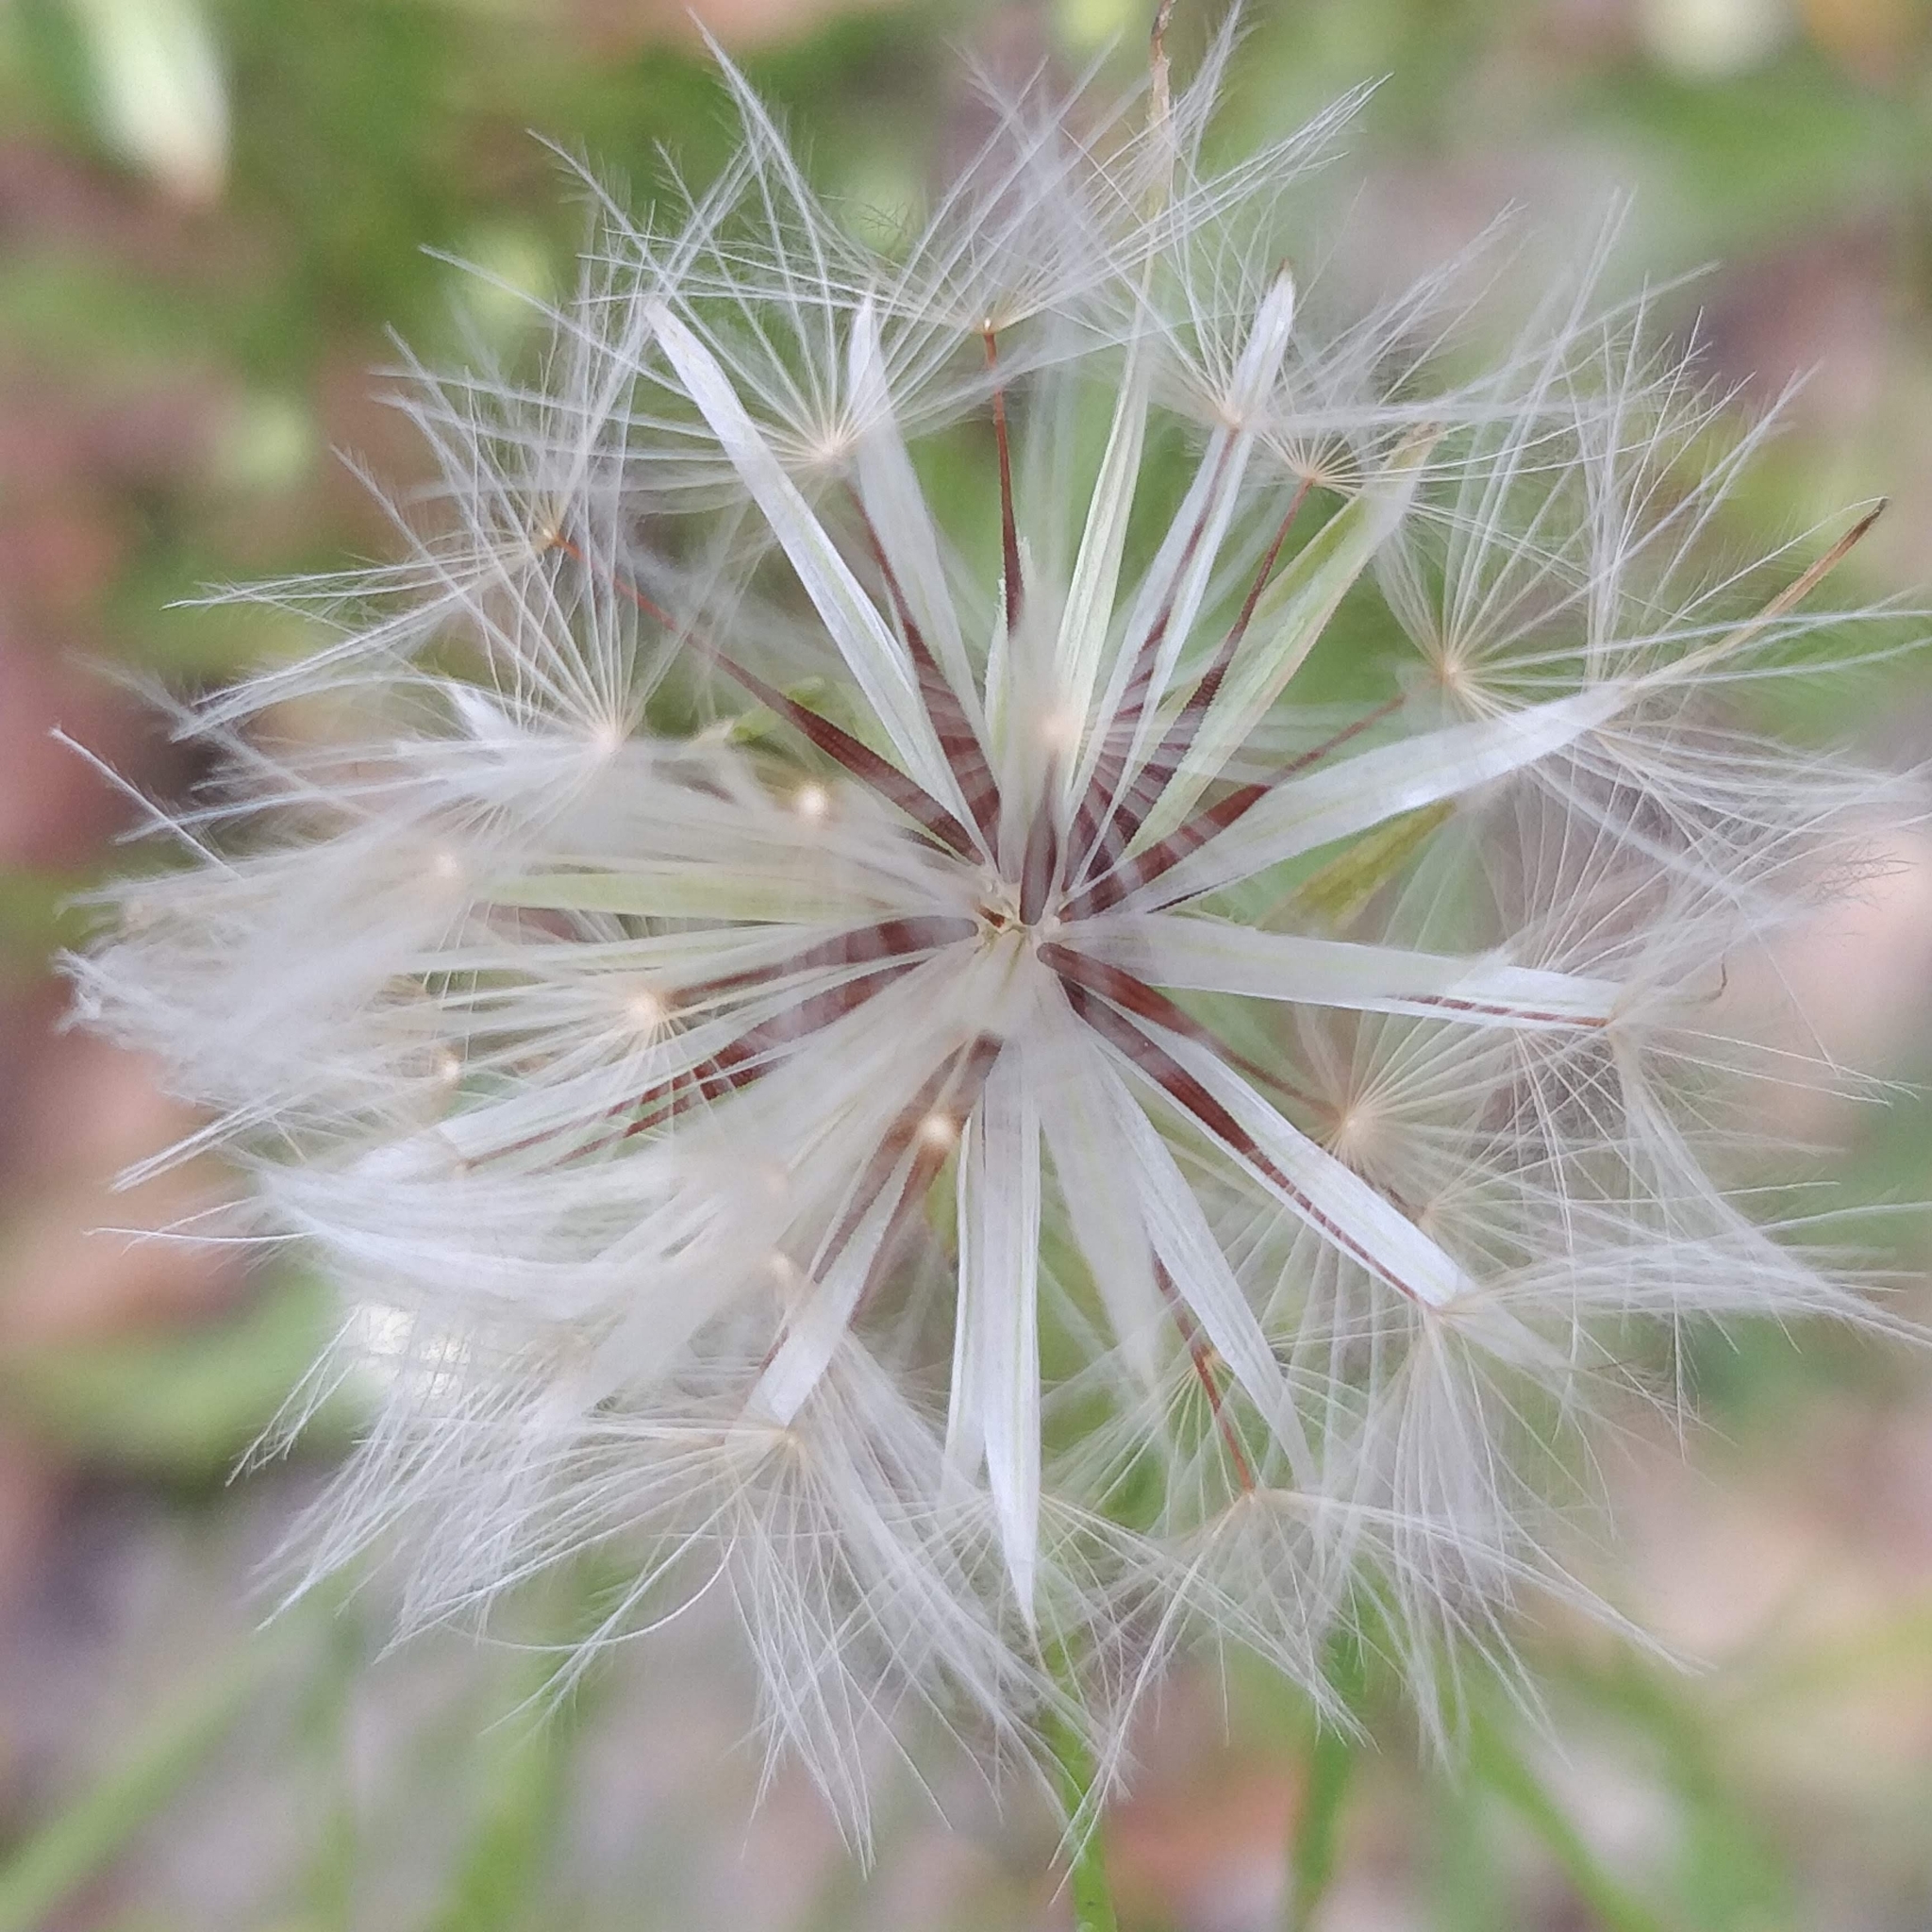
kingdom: Plantae
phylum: Tracheophyta
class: Magnoliopsida
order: Asterales
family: Asteraceae
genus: Hypochaeris
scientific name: Hypochaeris albiflora
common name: White flatweed
